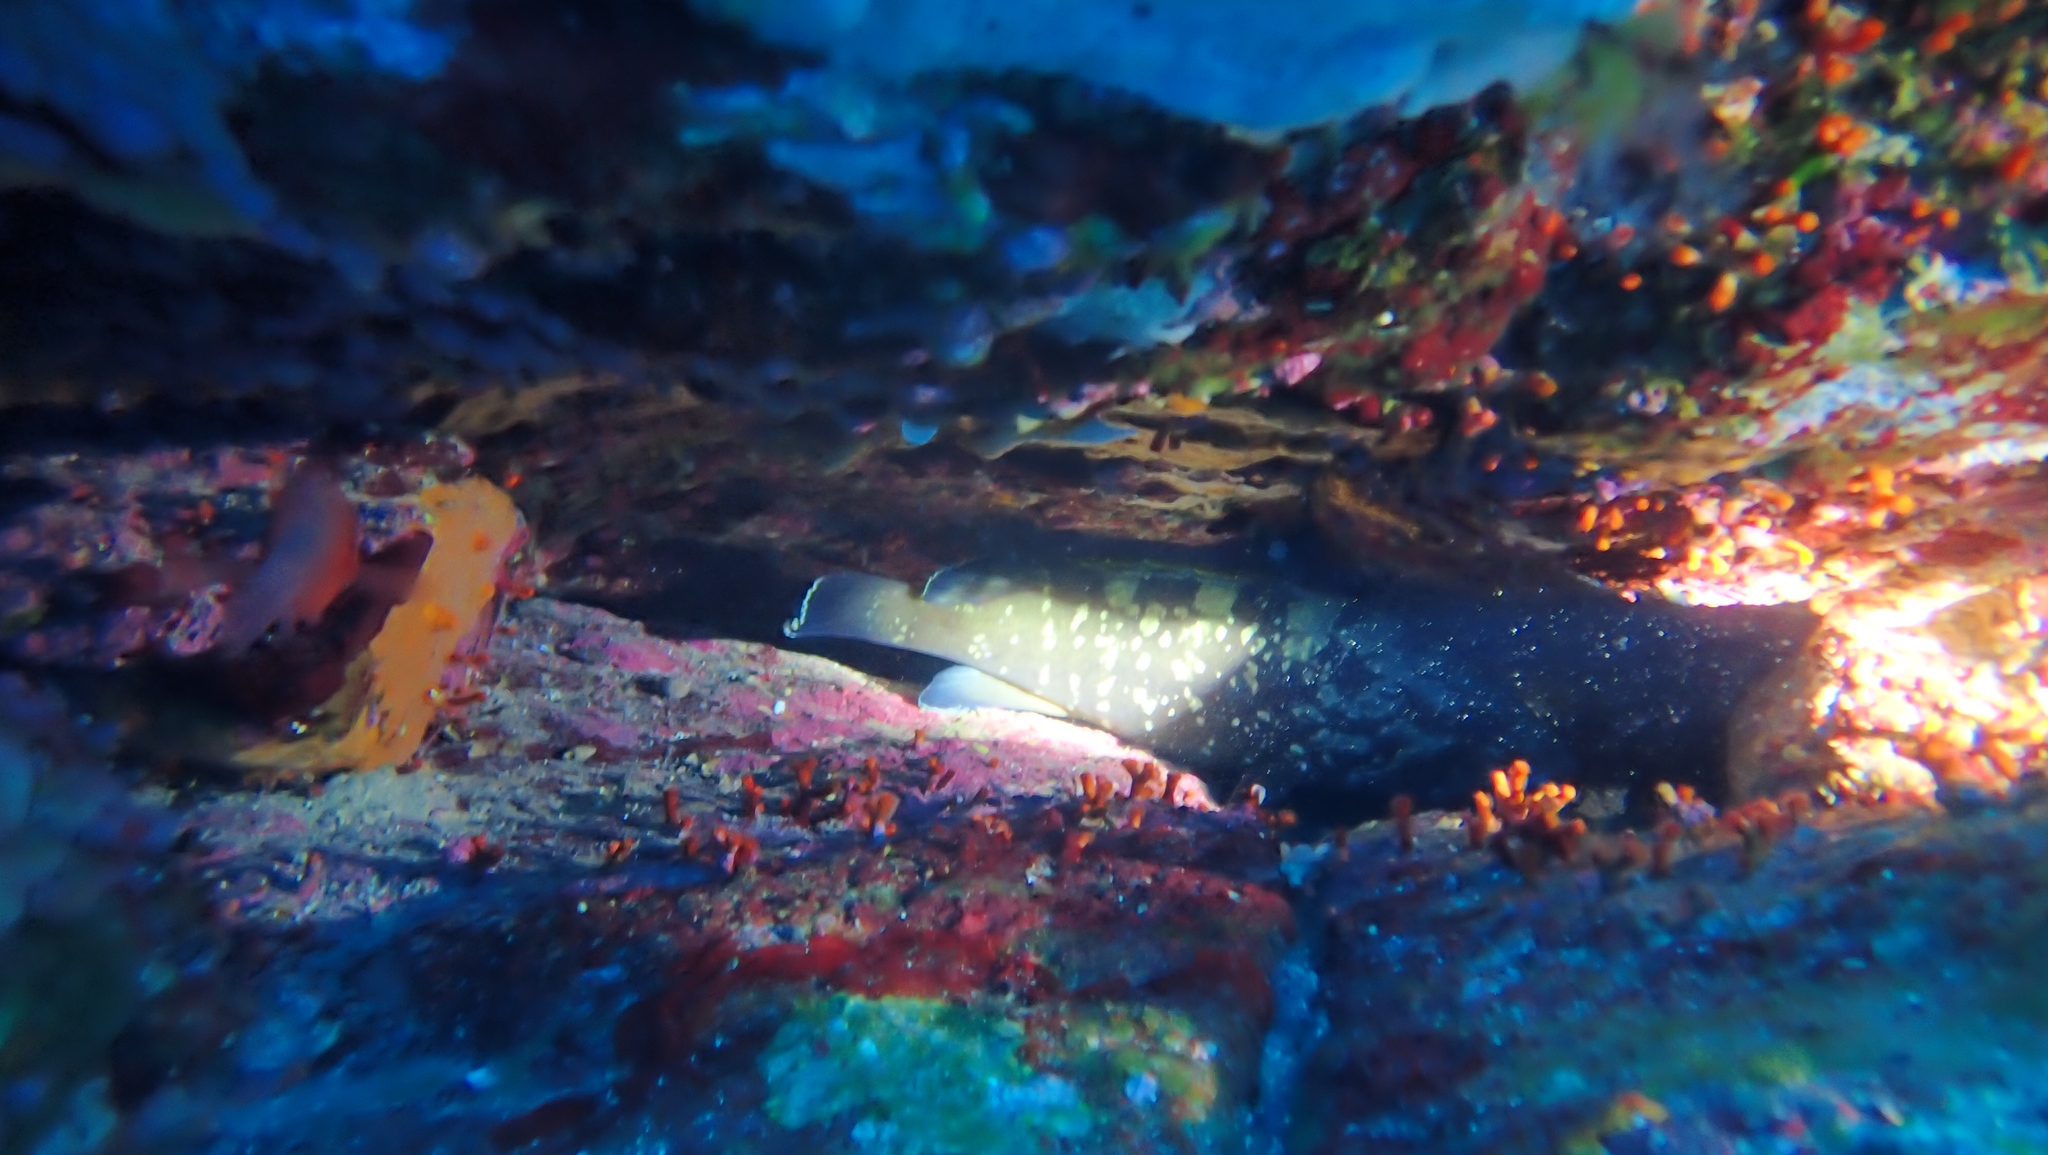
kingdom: Animalia
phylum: Chordata
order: Perciformes
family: Serranidae
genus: Epinephelus
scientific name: Epinephelus marginatus
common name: Dusky grouper
